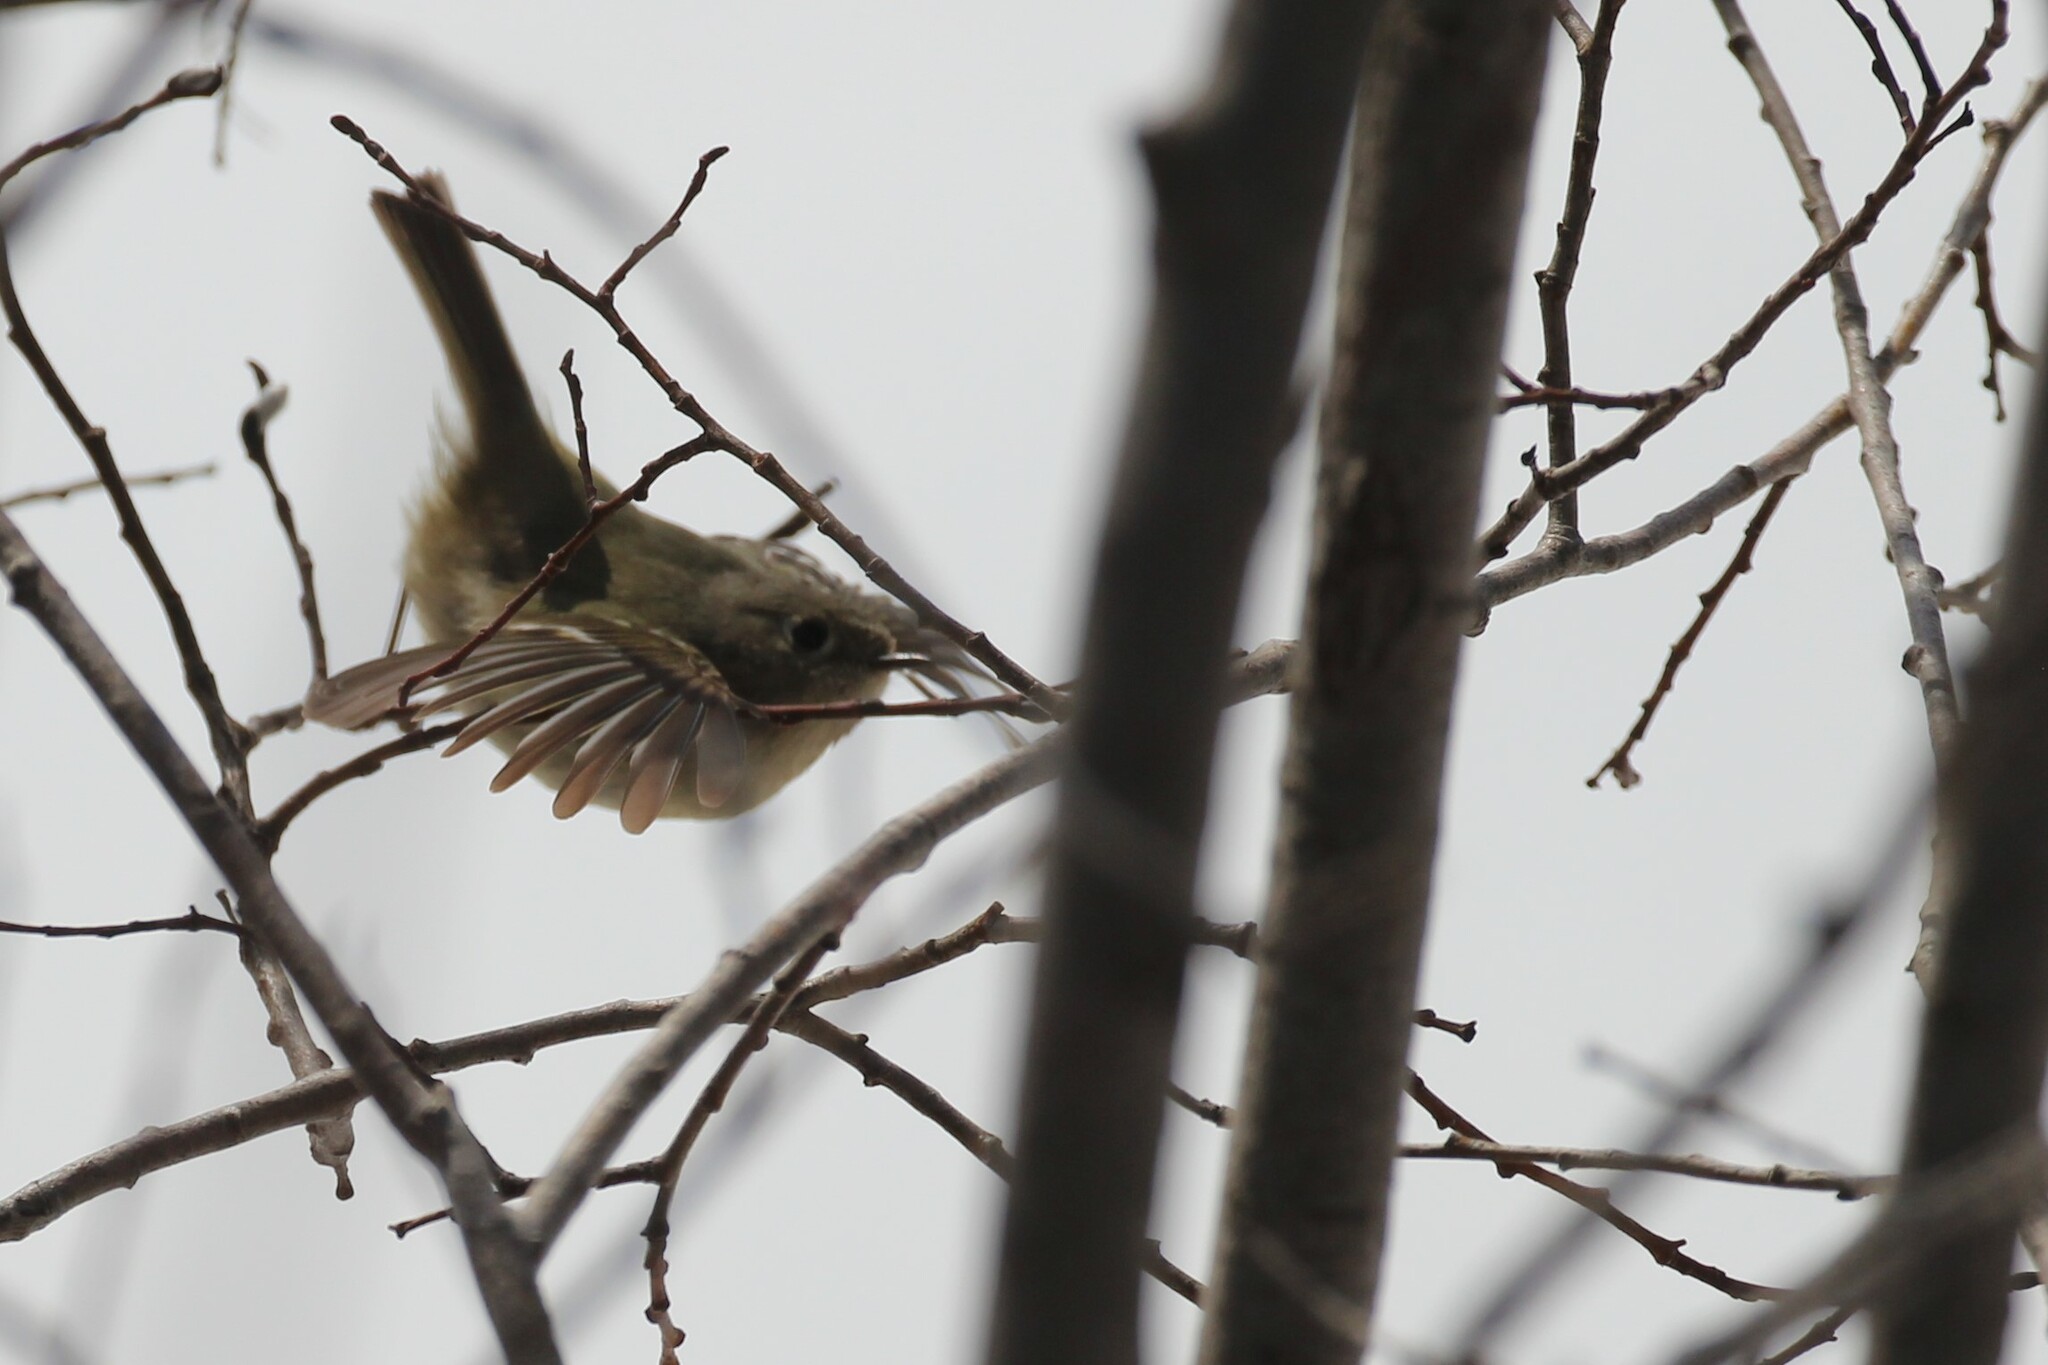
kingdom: Animalia
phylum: Chordata
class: Aves
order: Passeriformes
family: Regulidae
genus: Regulus
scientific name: Regulus calendula
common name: Ruby-crowned kinglet
